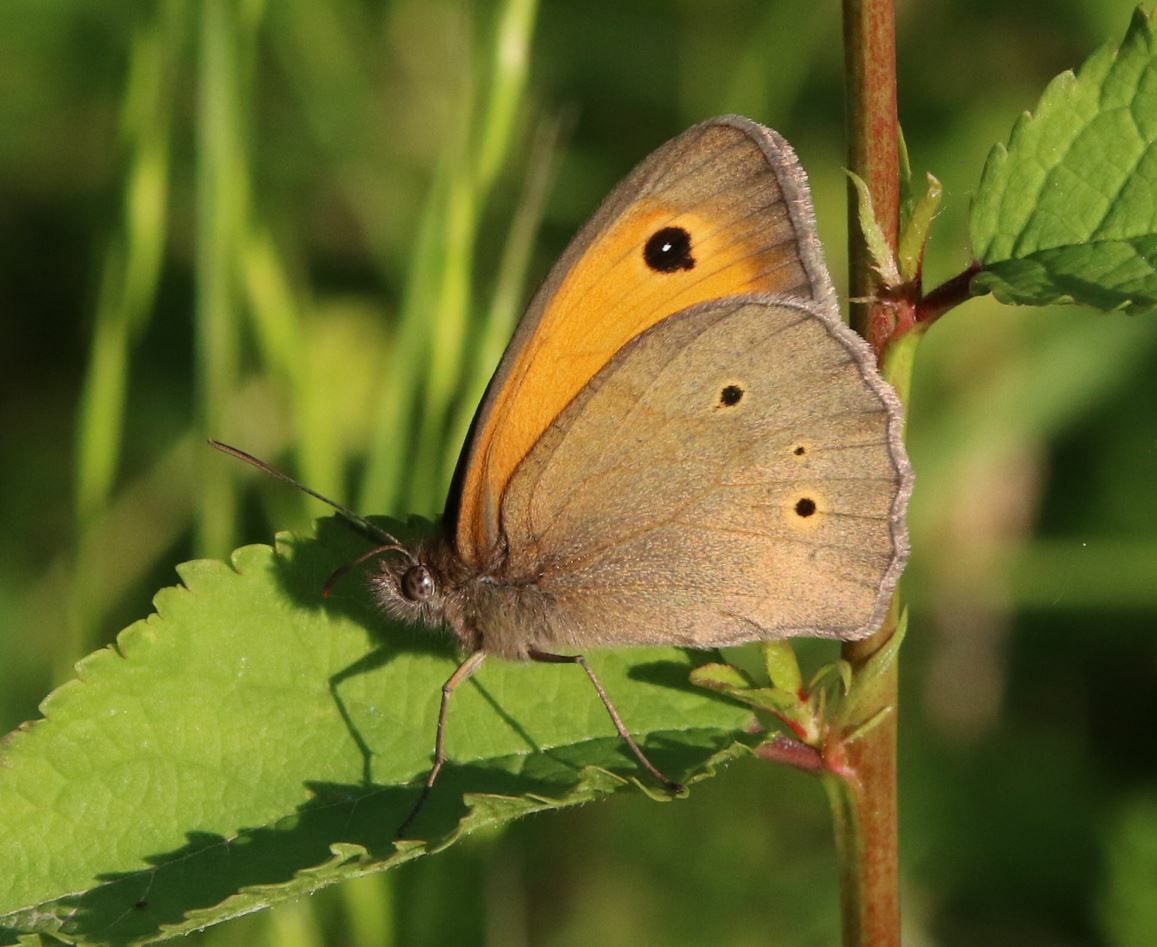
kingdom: Animalia
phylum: Arthropoda
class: Insecta
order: Lepidoptera
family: Nymphalidae
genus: Maniola
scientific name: Maniola jurtina
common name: Meadow brown
